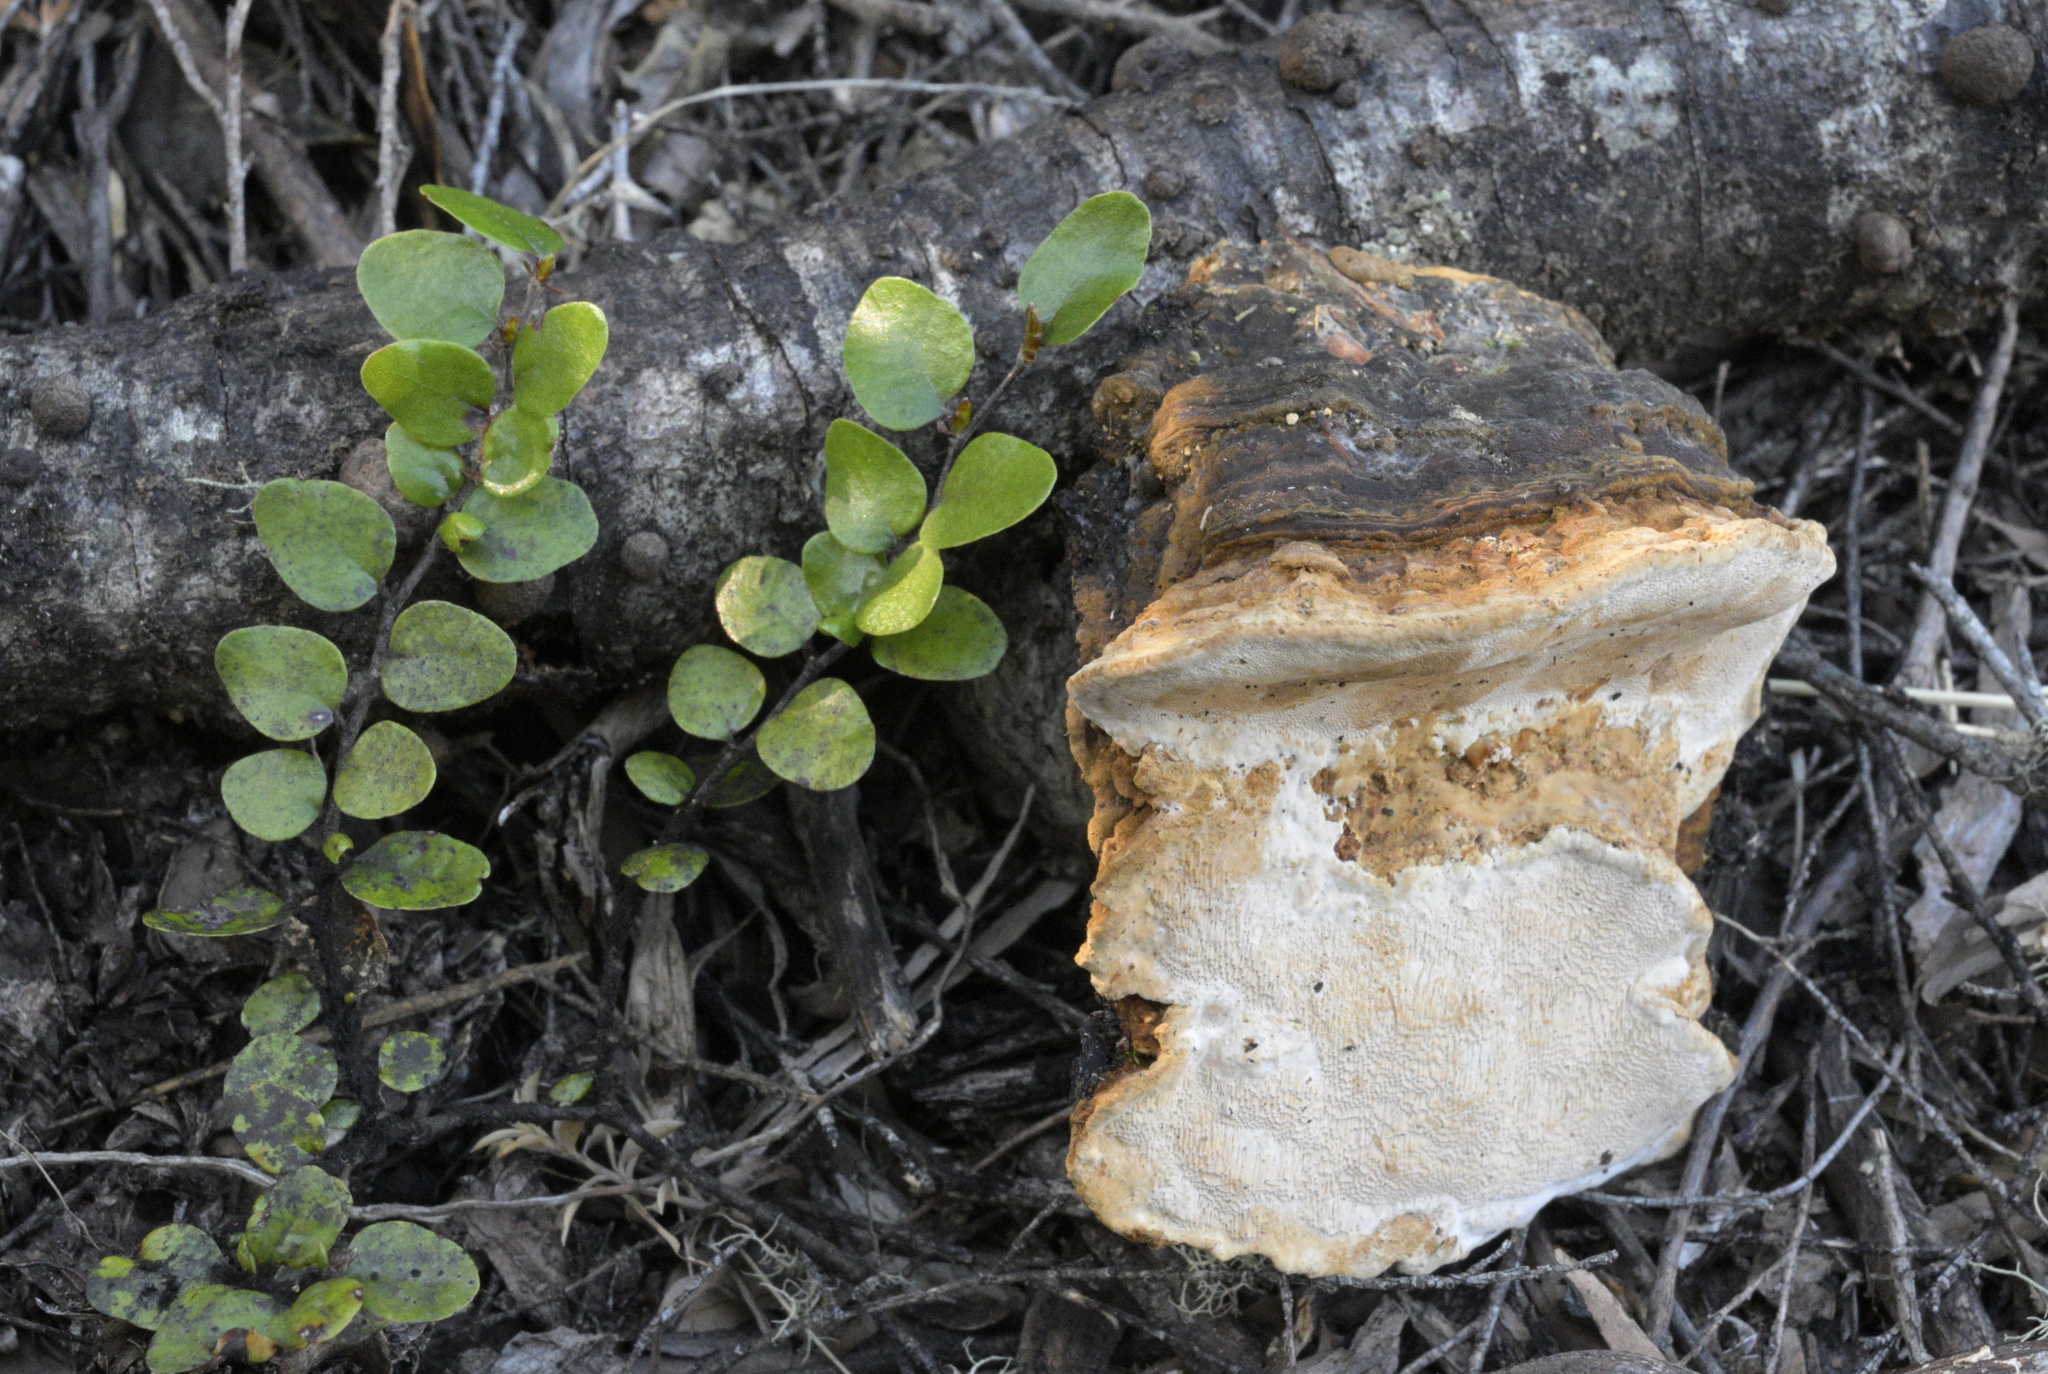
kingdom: Fungi
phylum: Basidiomycota
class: Agaricomycetes
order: Polyporales
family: Polyporaceae
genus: Australoporus
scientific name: Australoporus tasmanicus
